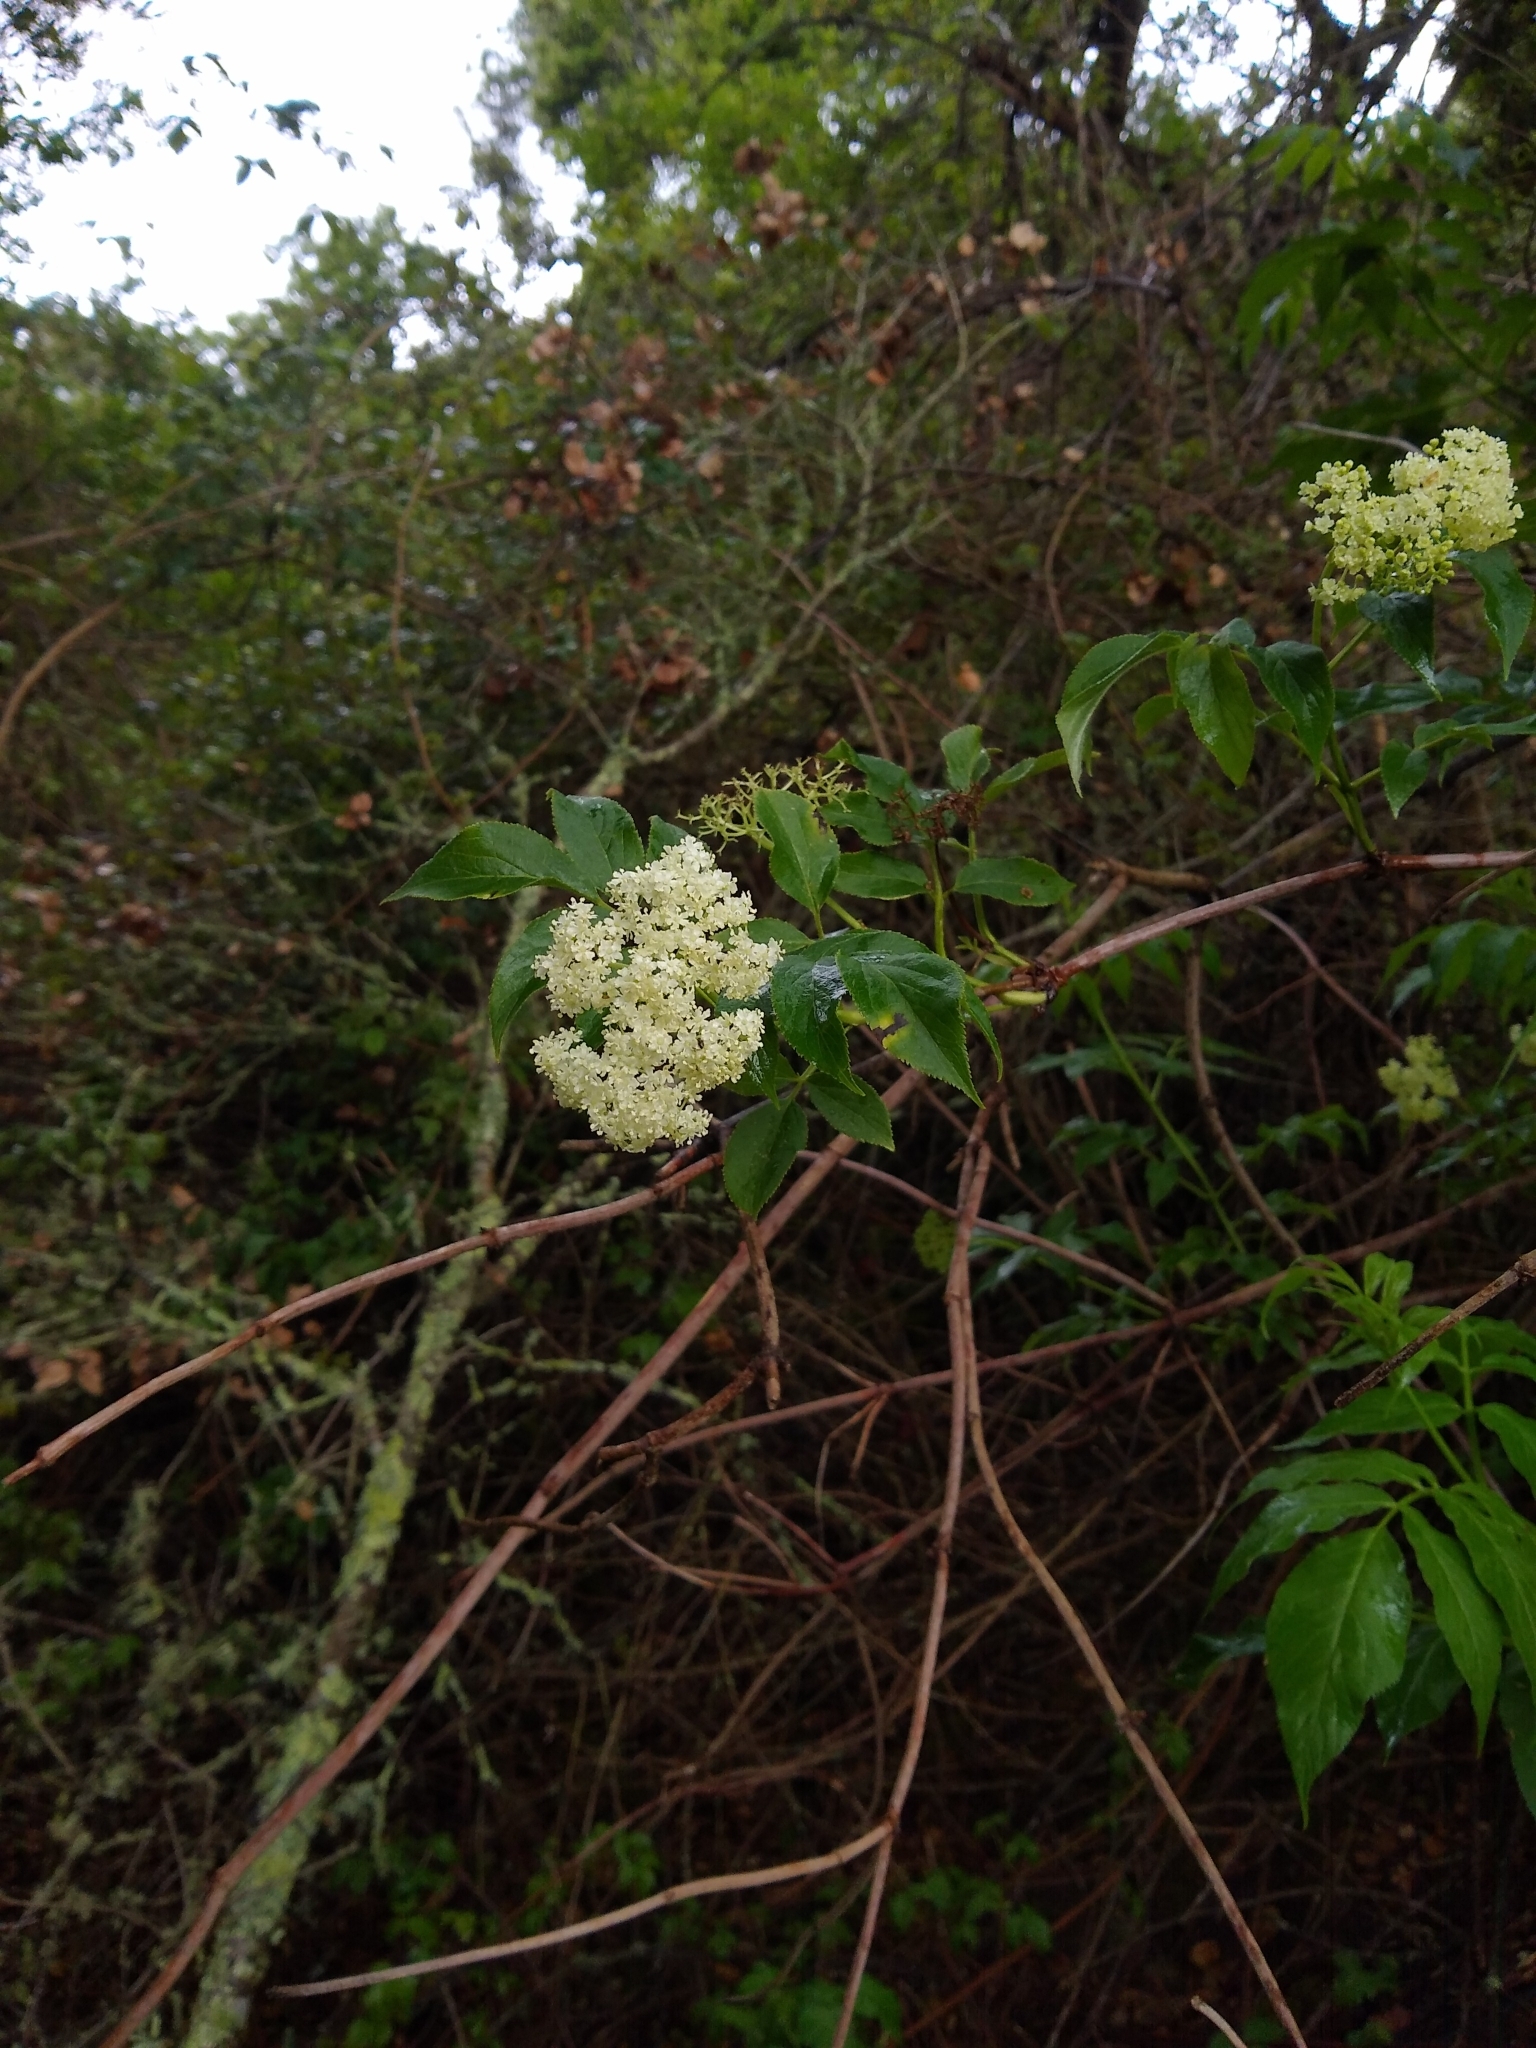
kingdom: Plantae
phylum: Tracheophyta
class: Magnoliopsida
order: Dipsacales
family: Viburnaceae
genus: Sambucus
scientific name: Sambucus cerulea
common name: Blue elder
